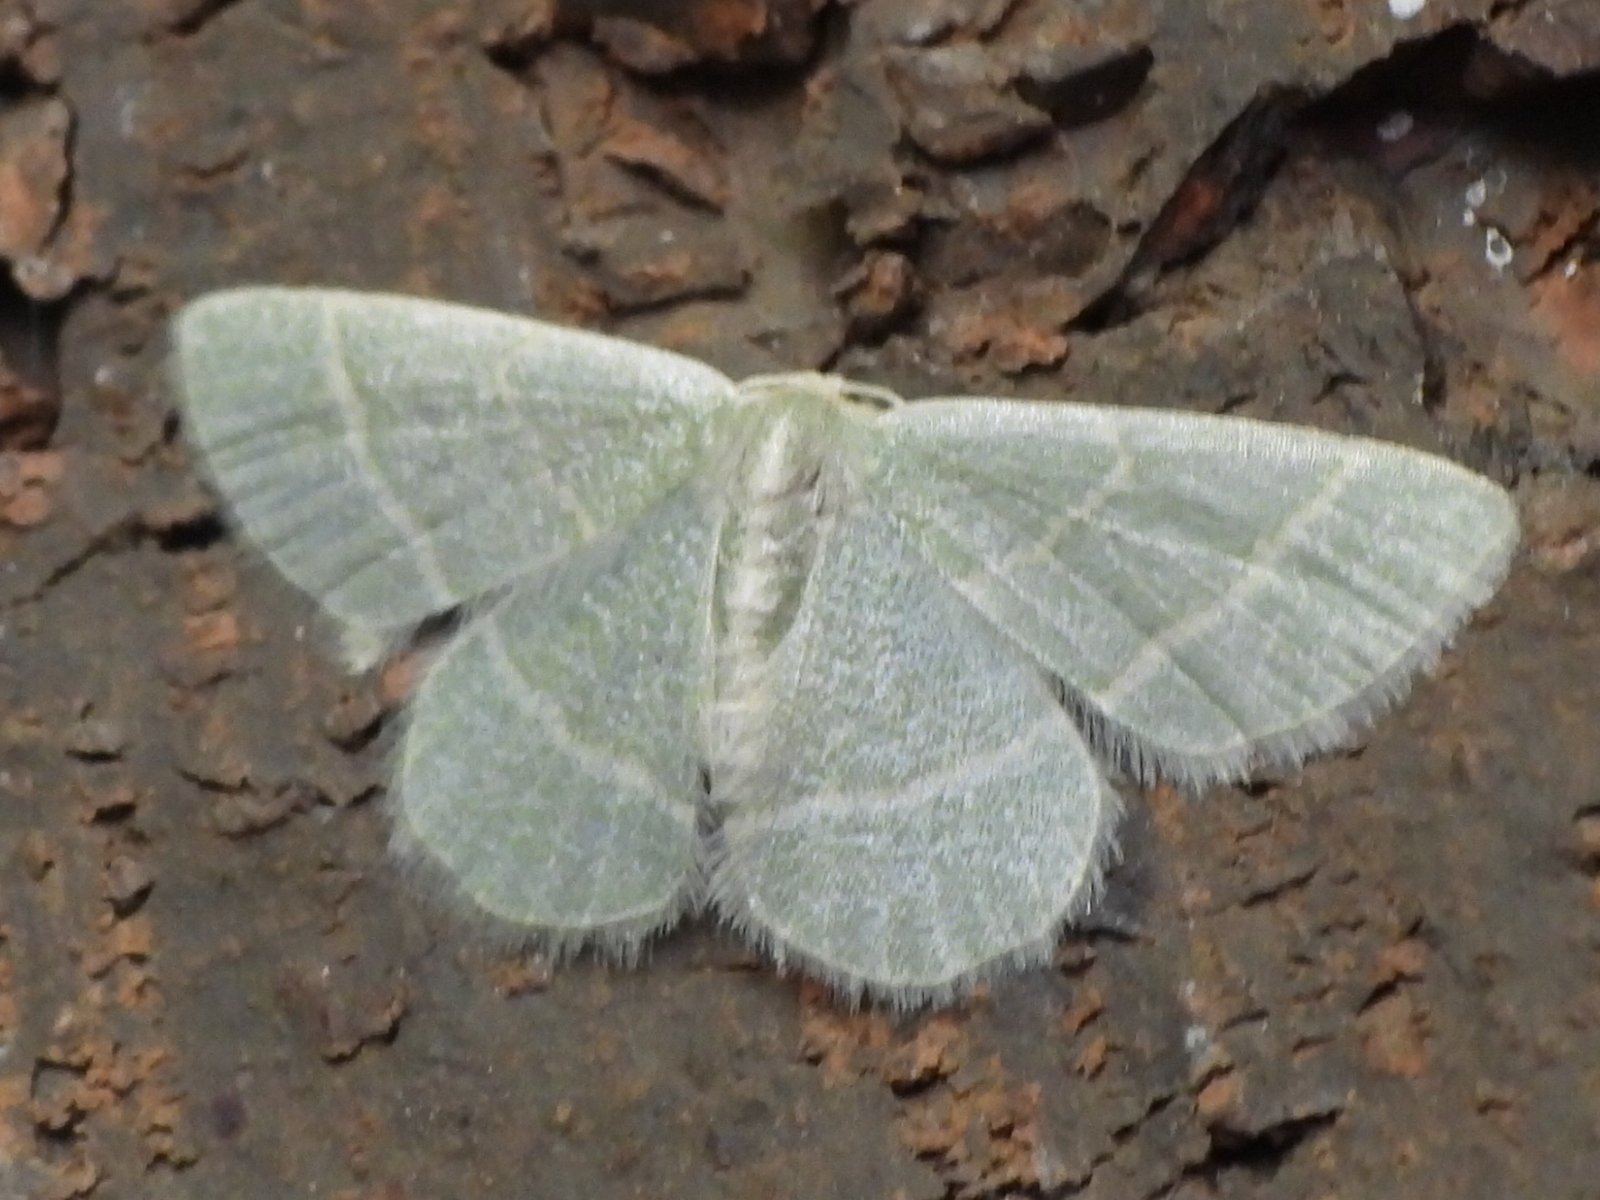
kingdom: Animalia
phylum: Arthropoda
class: Insecta
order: Lepidoptera
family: Geometridae
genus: Chlorochlamys
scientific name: Chlorochlamys chloroleucaria
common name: Blackberry looper
